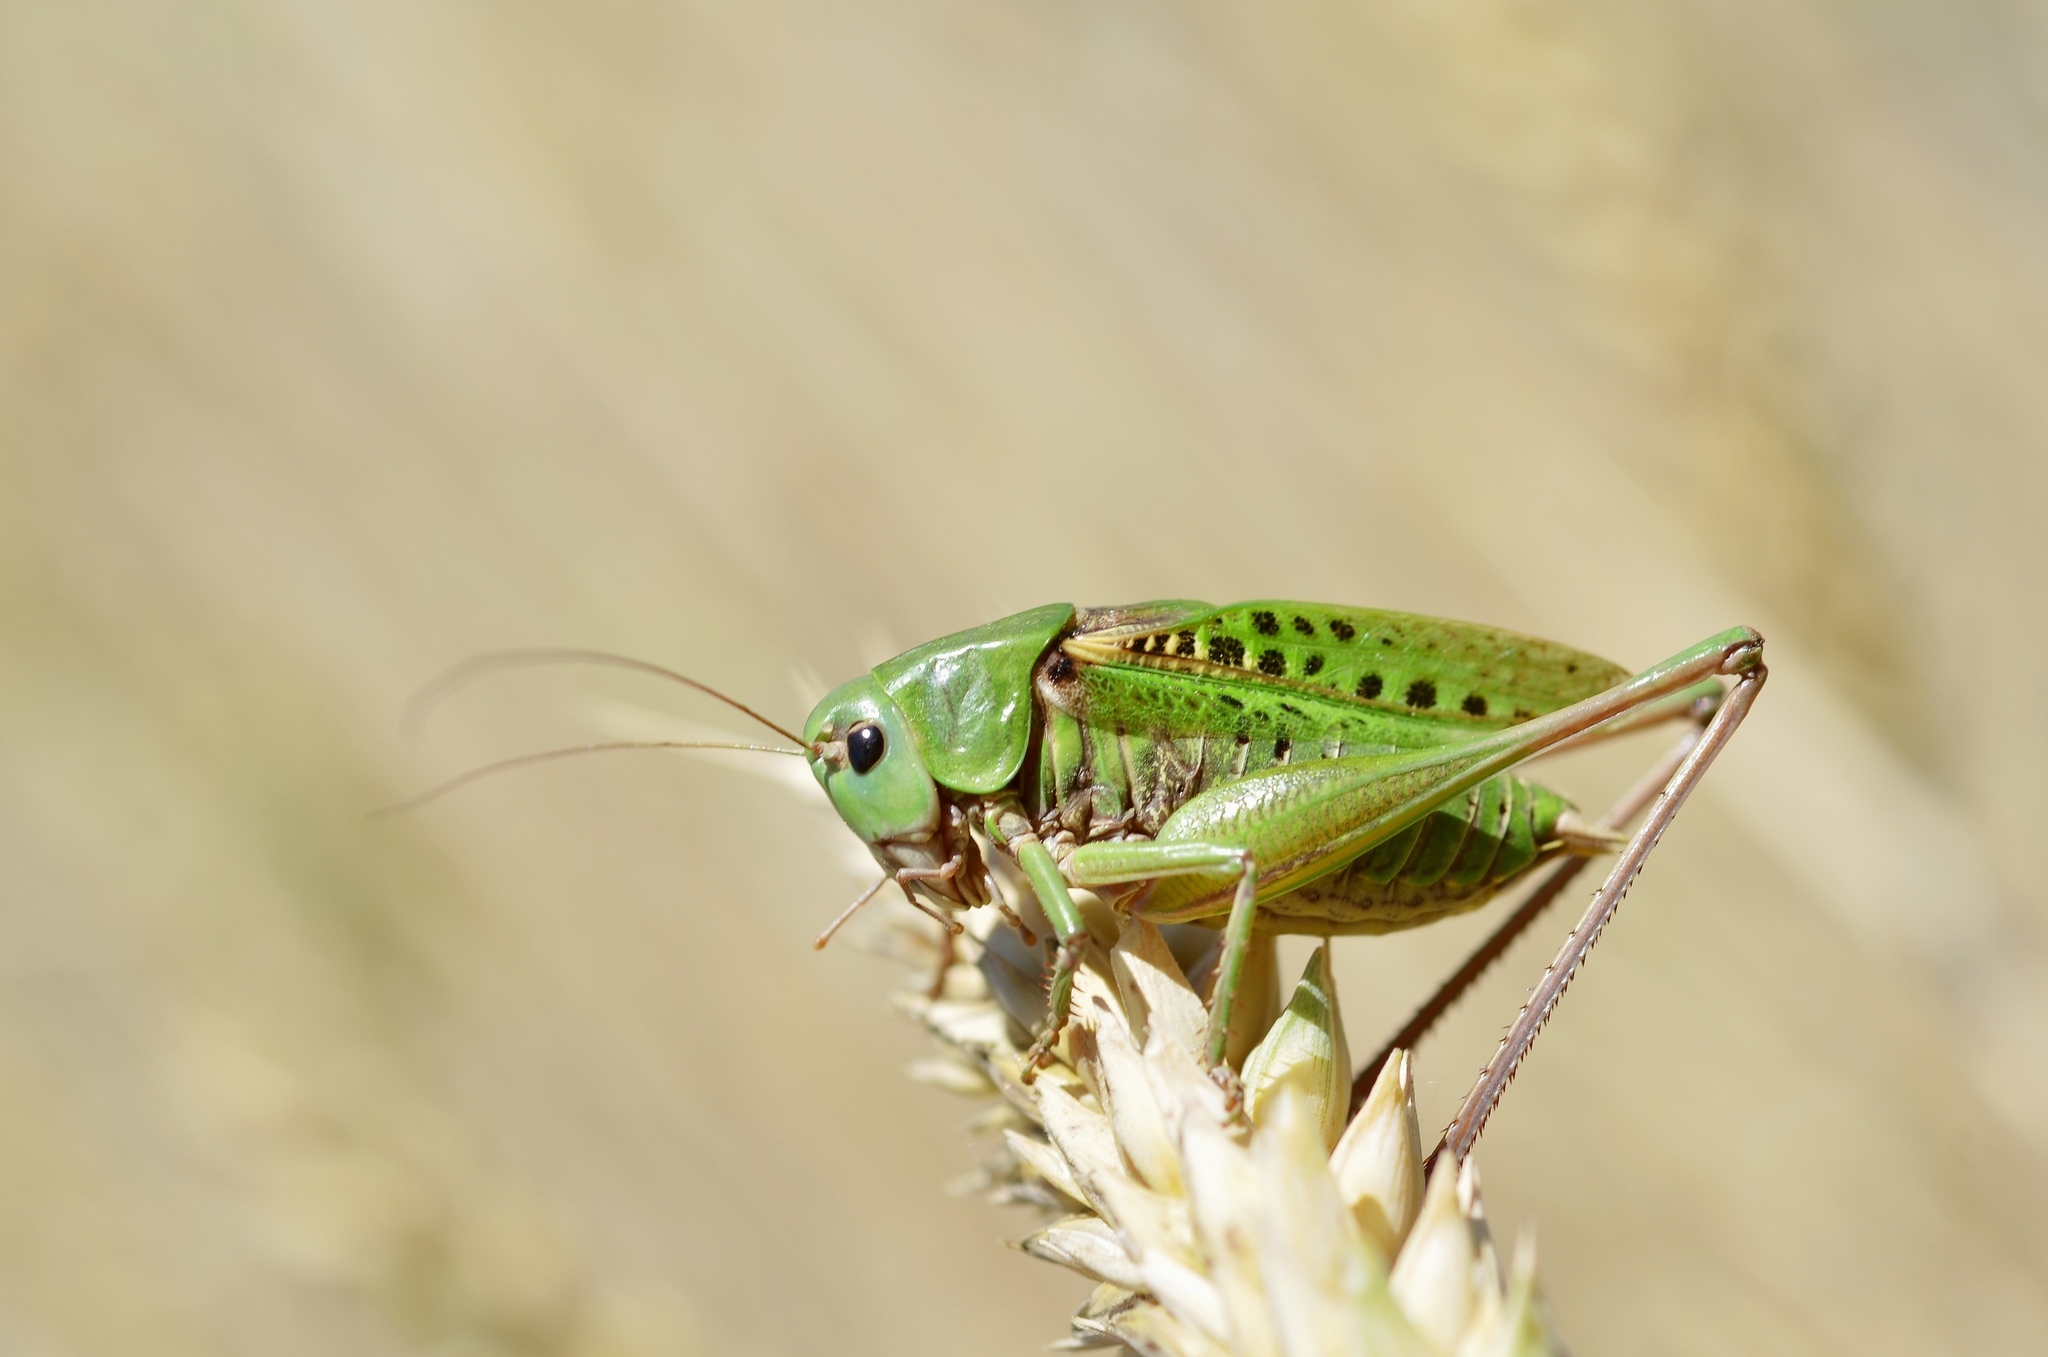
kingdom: Animalia
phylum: Arthropoda
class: Insecta
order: Orthoptera
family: Tettigoniidae
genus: Decticus
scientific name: Decticus verrucivorus
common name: Wart-biter
